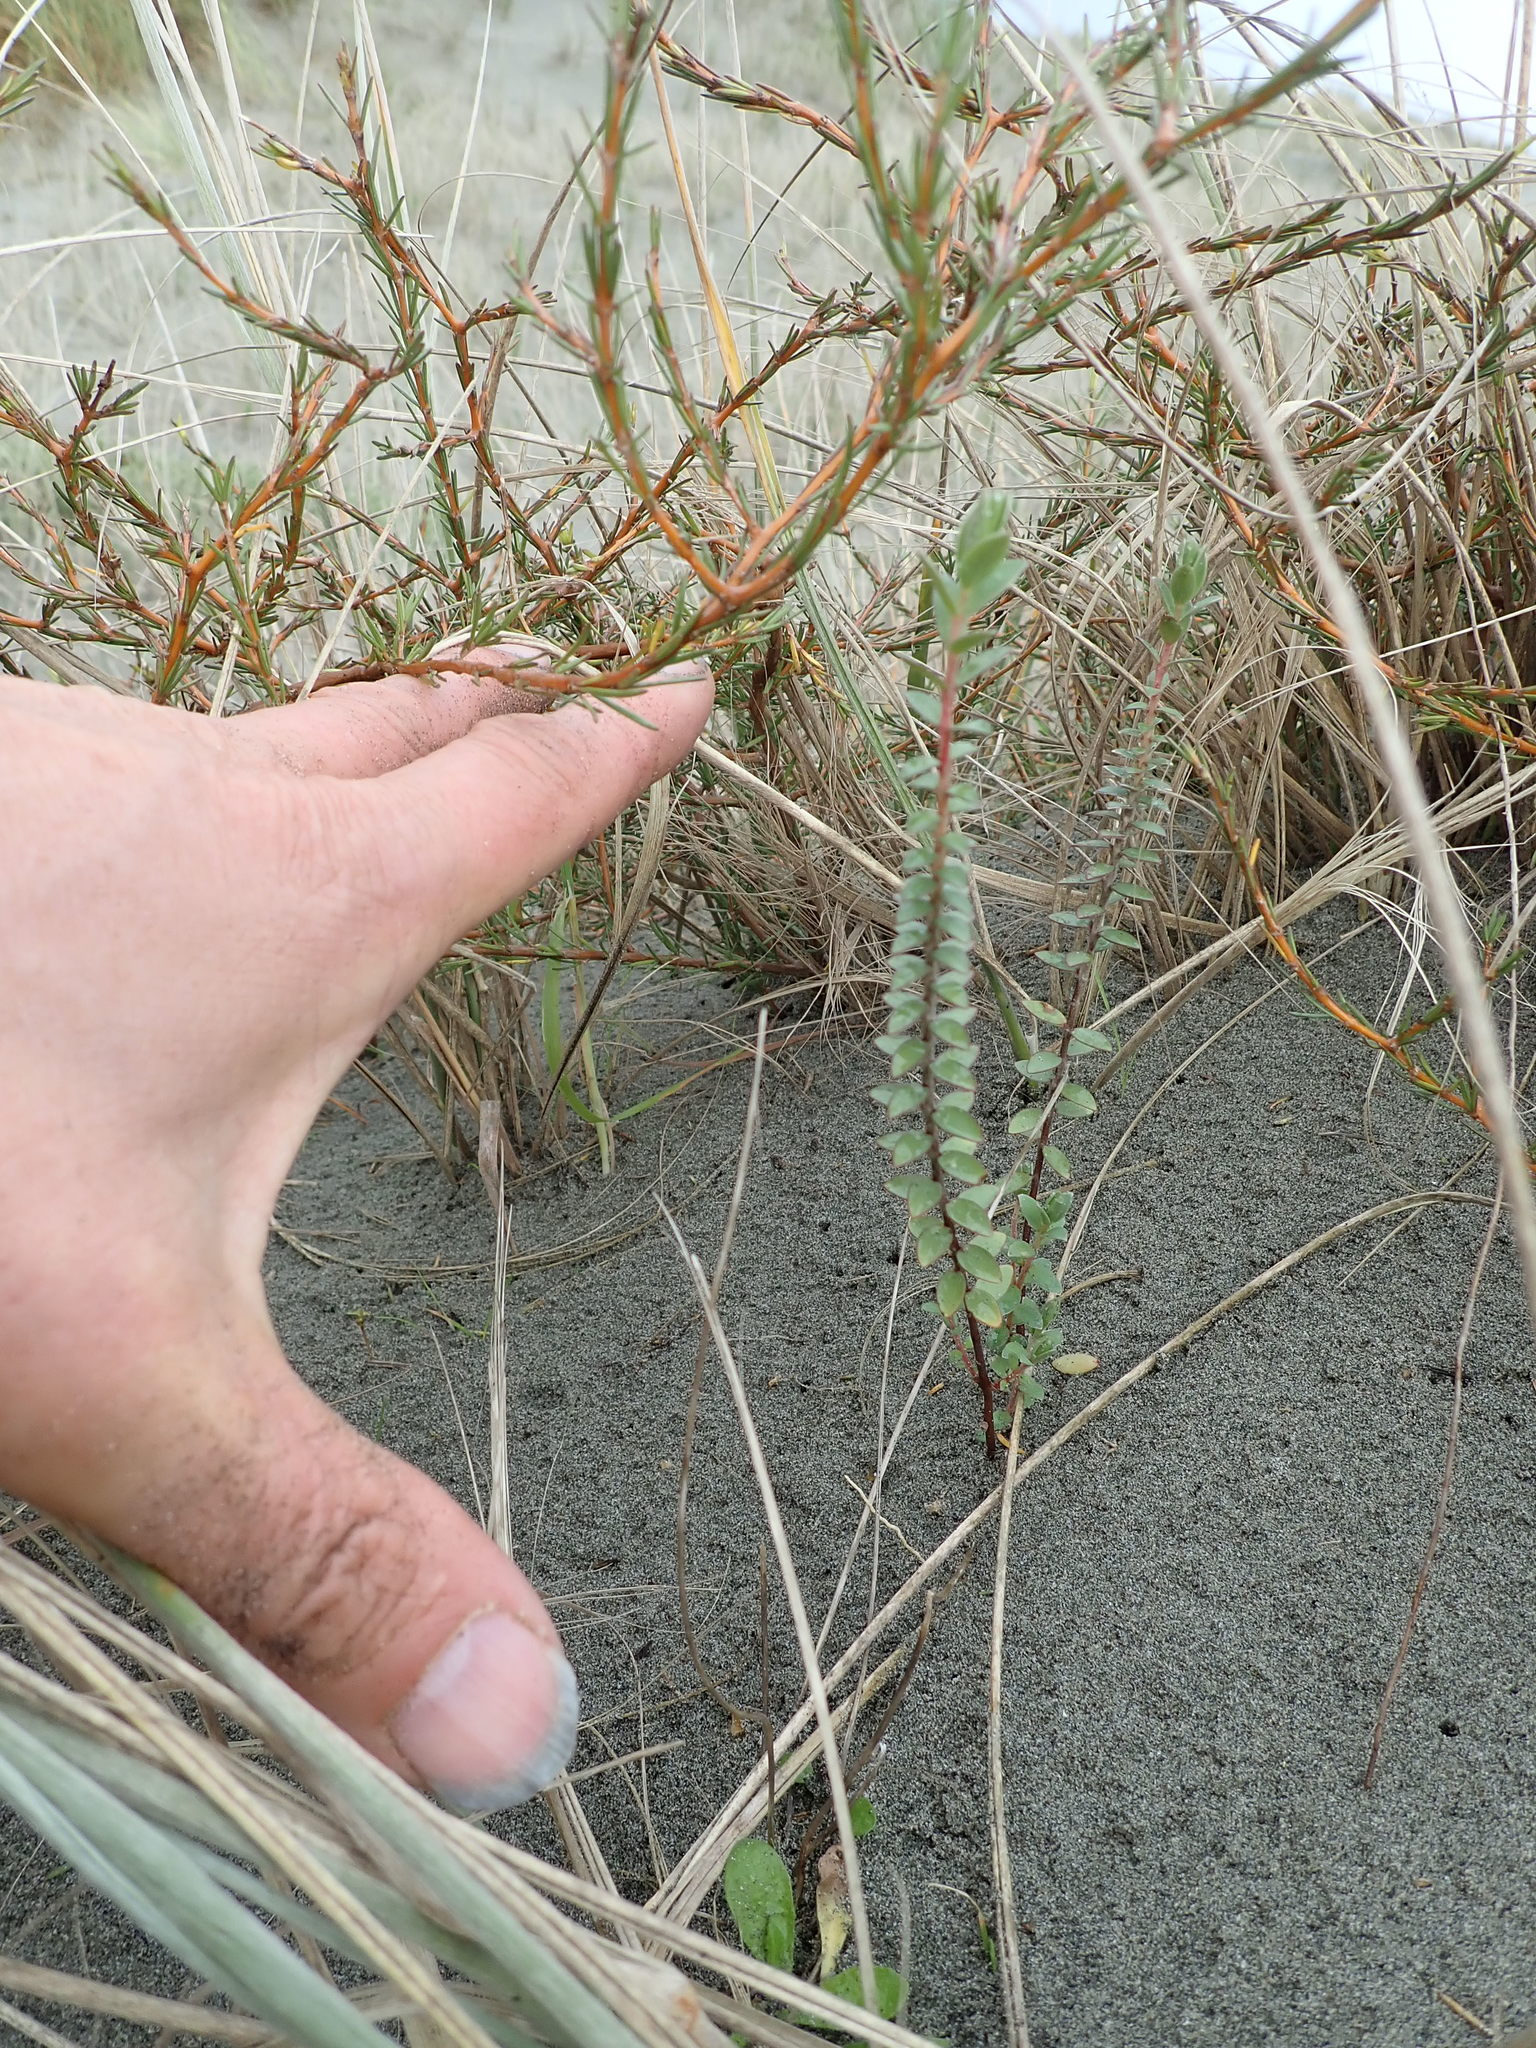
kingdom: Plantae
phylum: Tracheophyta
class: Magnoliopsida
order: Malvales
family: Thymelaeaceae
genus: Pimelea
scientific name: Pimelea villosa
